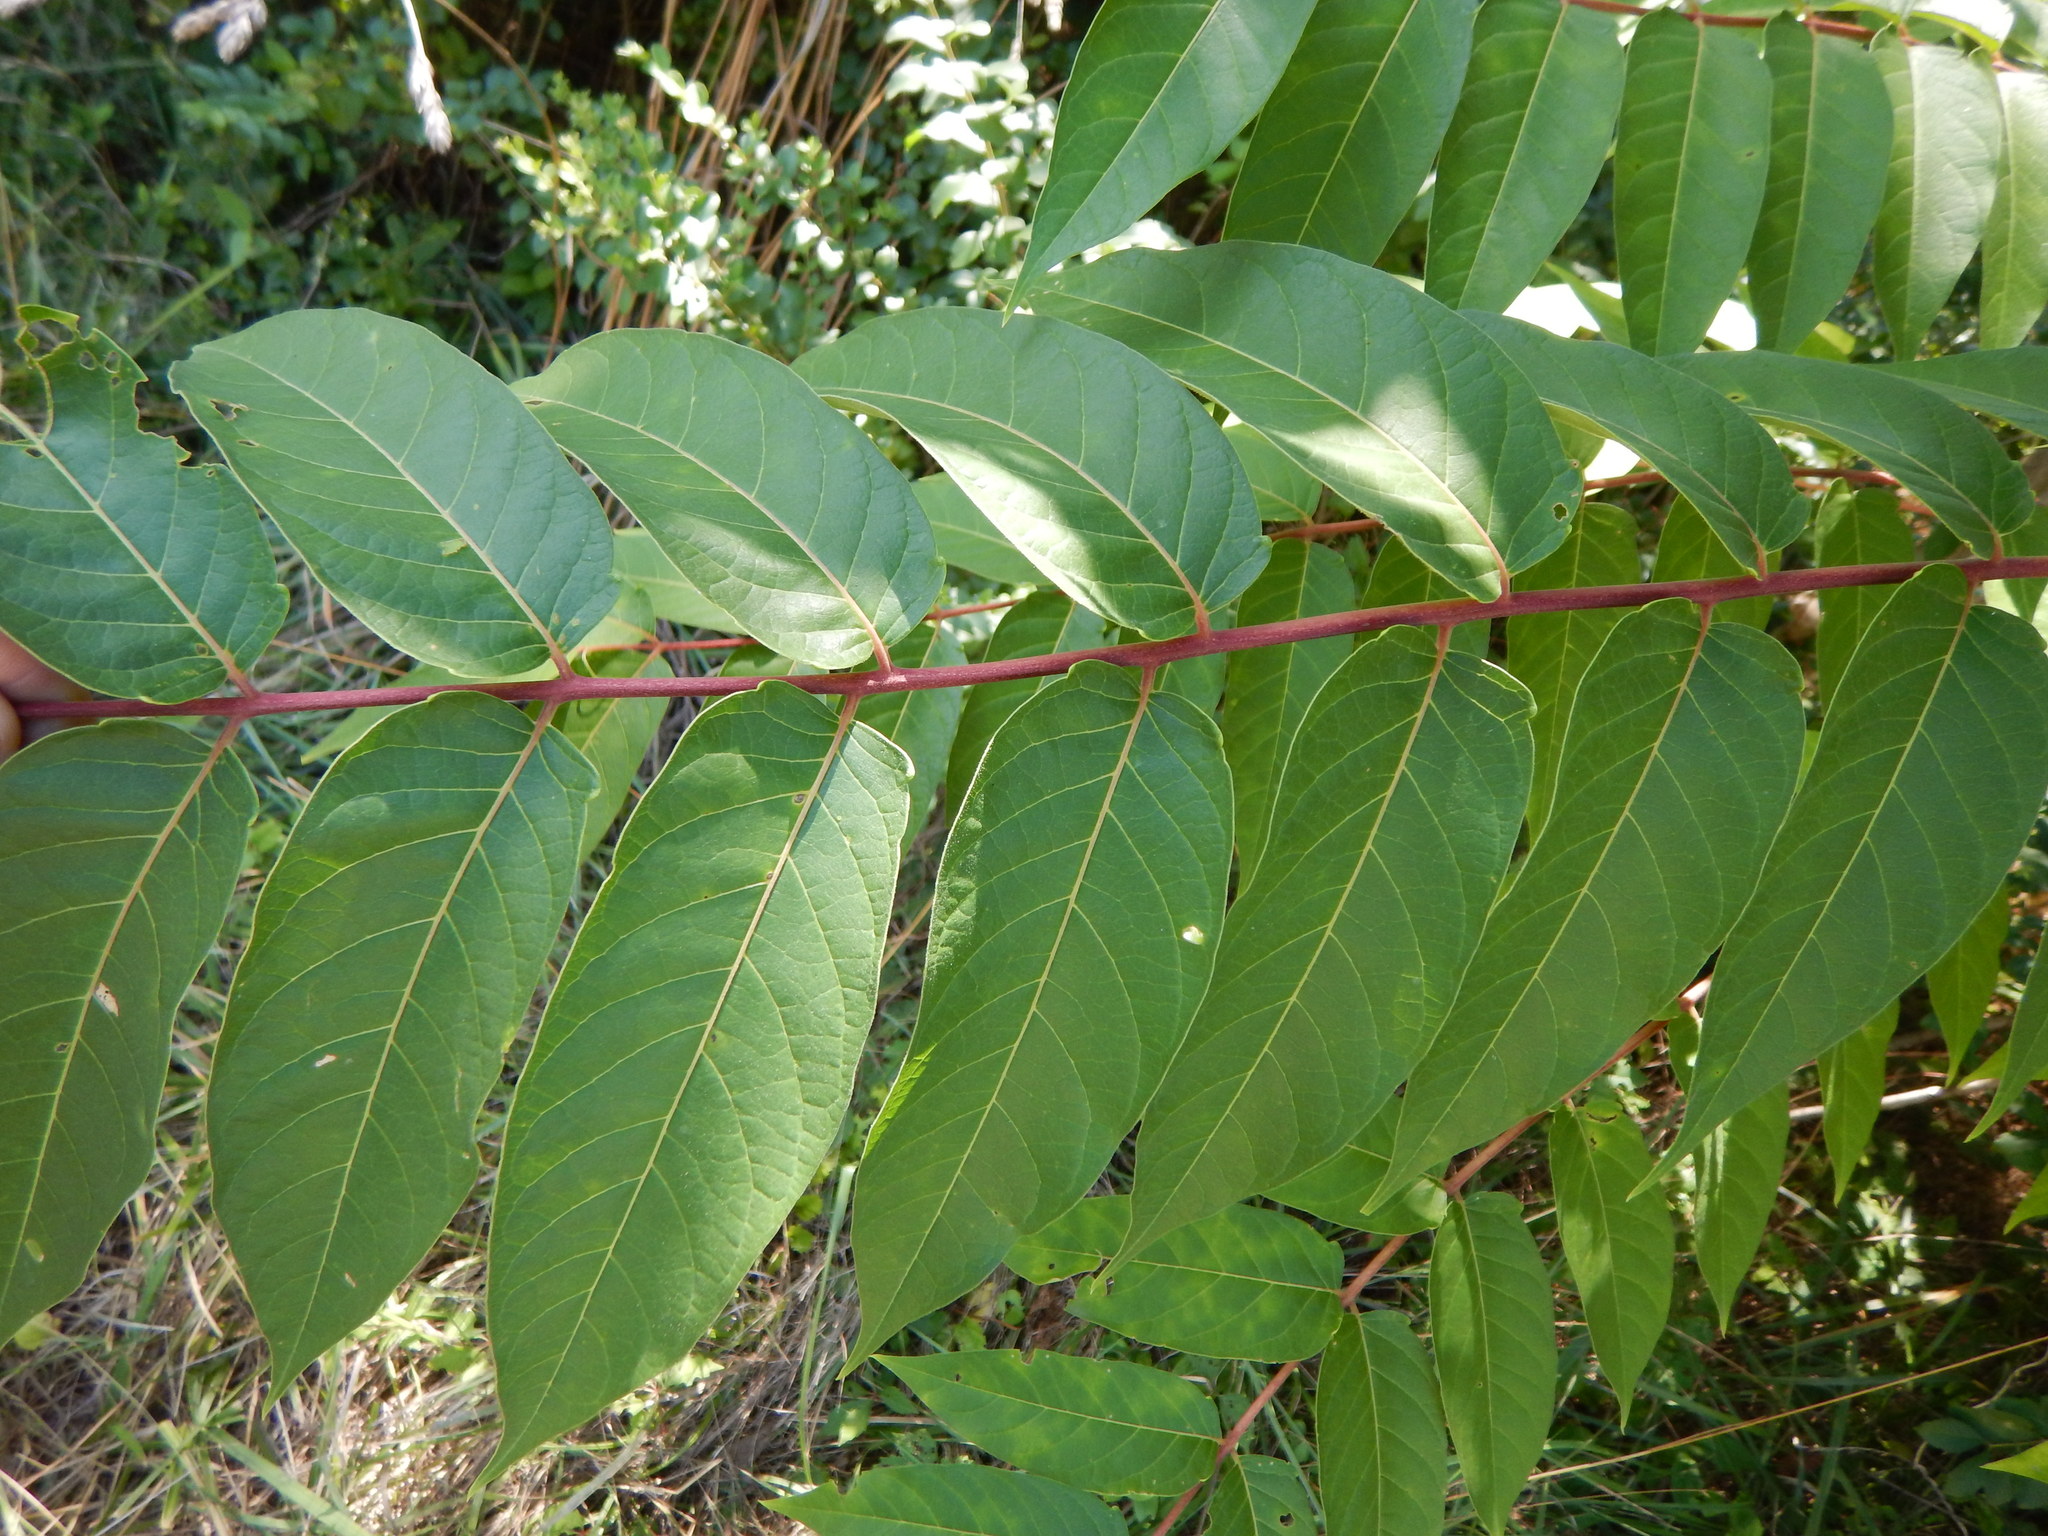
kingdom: Plantae
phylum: Tracheophyta
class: Magnoliopsida
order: Sapindales
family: Simaroubaceae
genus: Ailanthus
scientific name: Ailanthus altissima
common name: Tree-of-heaven
